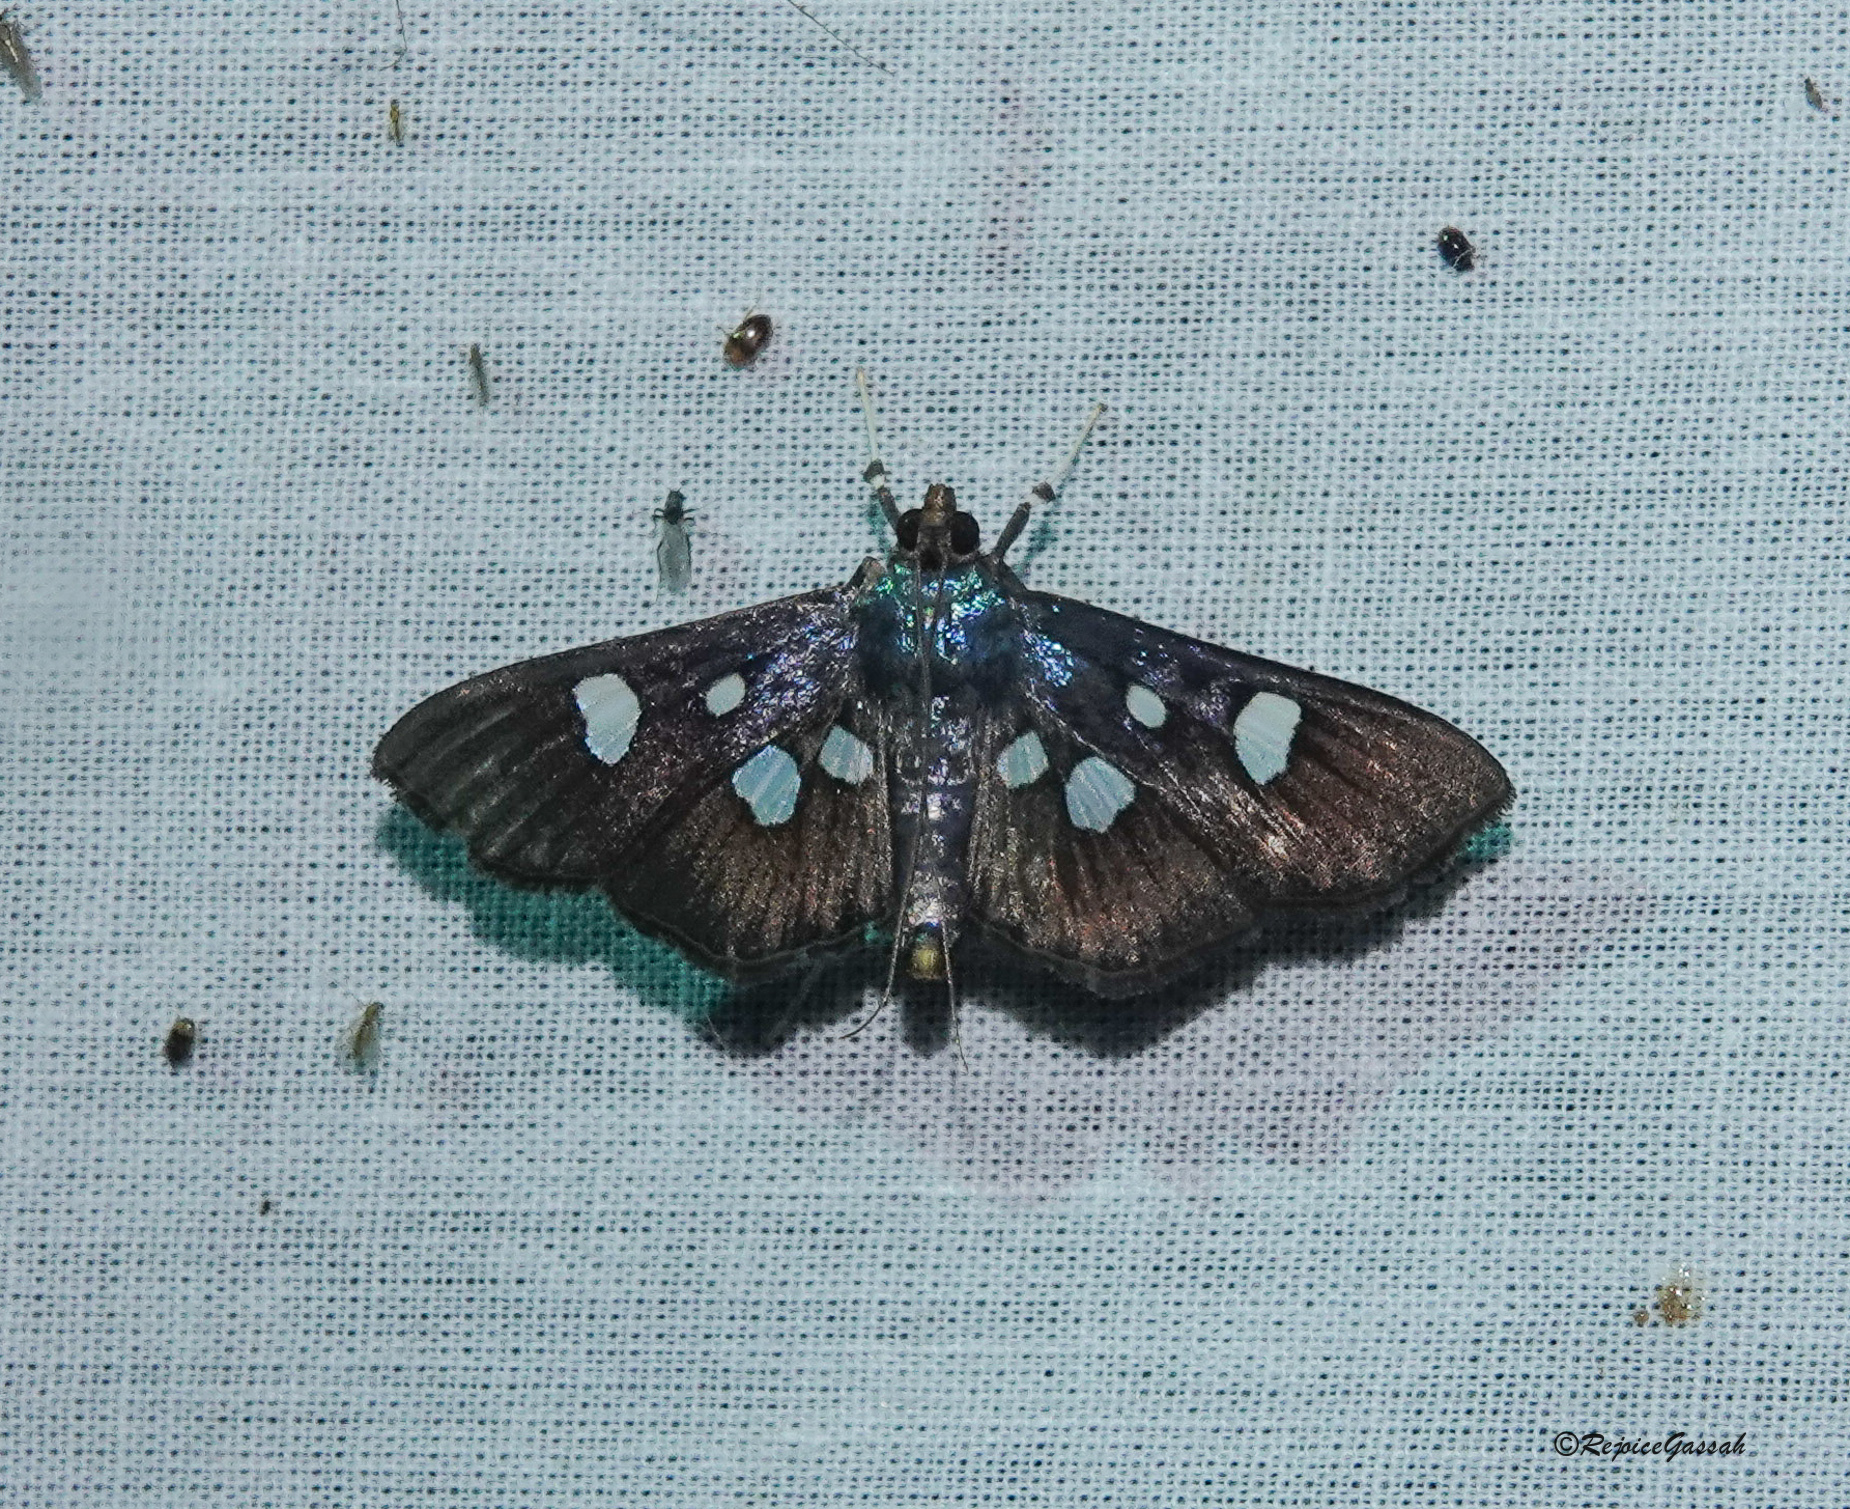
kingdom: Animalia
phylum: Arthropoda
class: Insecta
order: Lepidoptera
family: Crambidae
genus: Pygospila
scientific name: Pygospila
